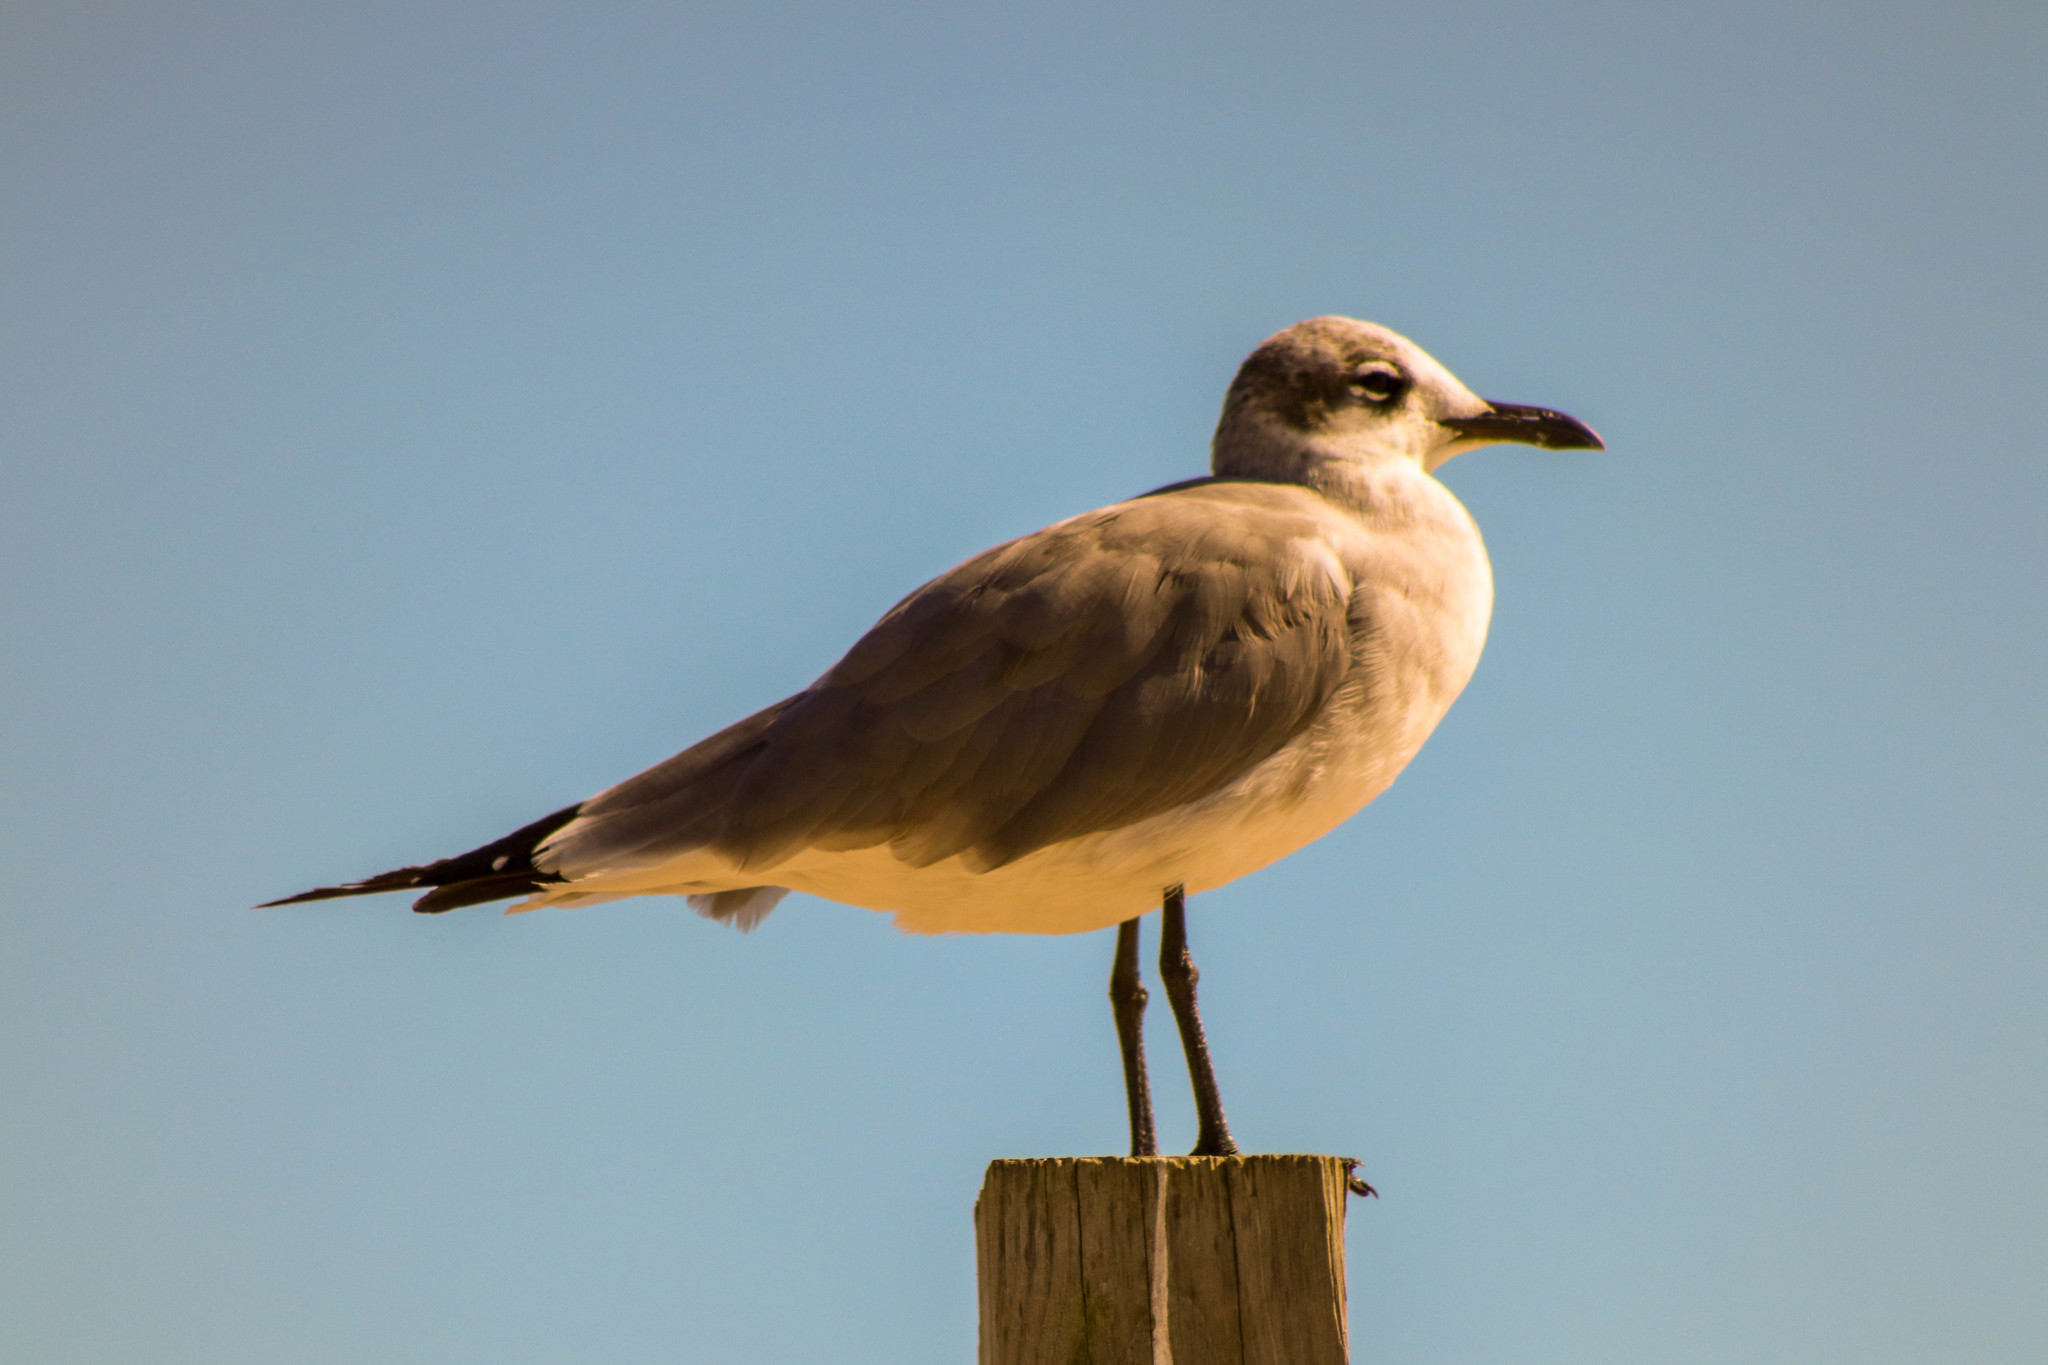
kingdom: Animalia
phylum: Chordata
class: Aves
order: Charadriiformes
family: Laridae
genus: Leucophaeus
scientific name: Leucophaeus atricilla
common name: Laughing gull
